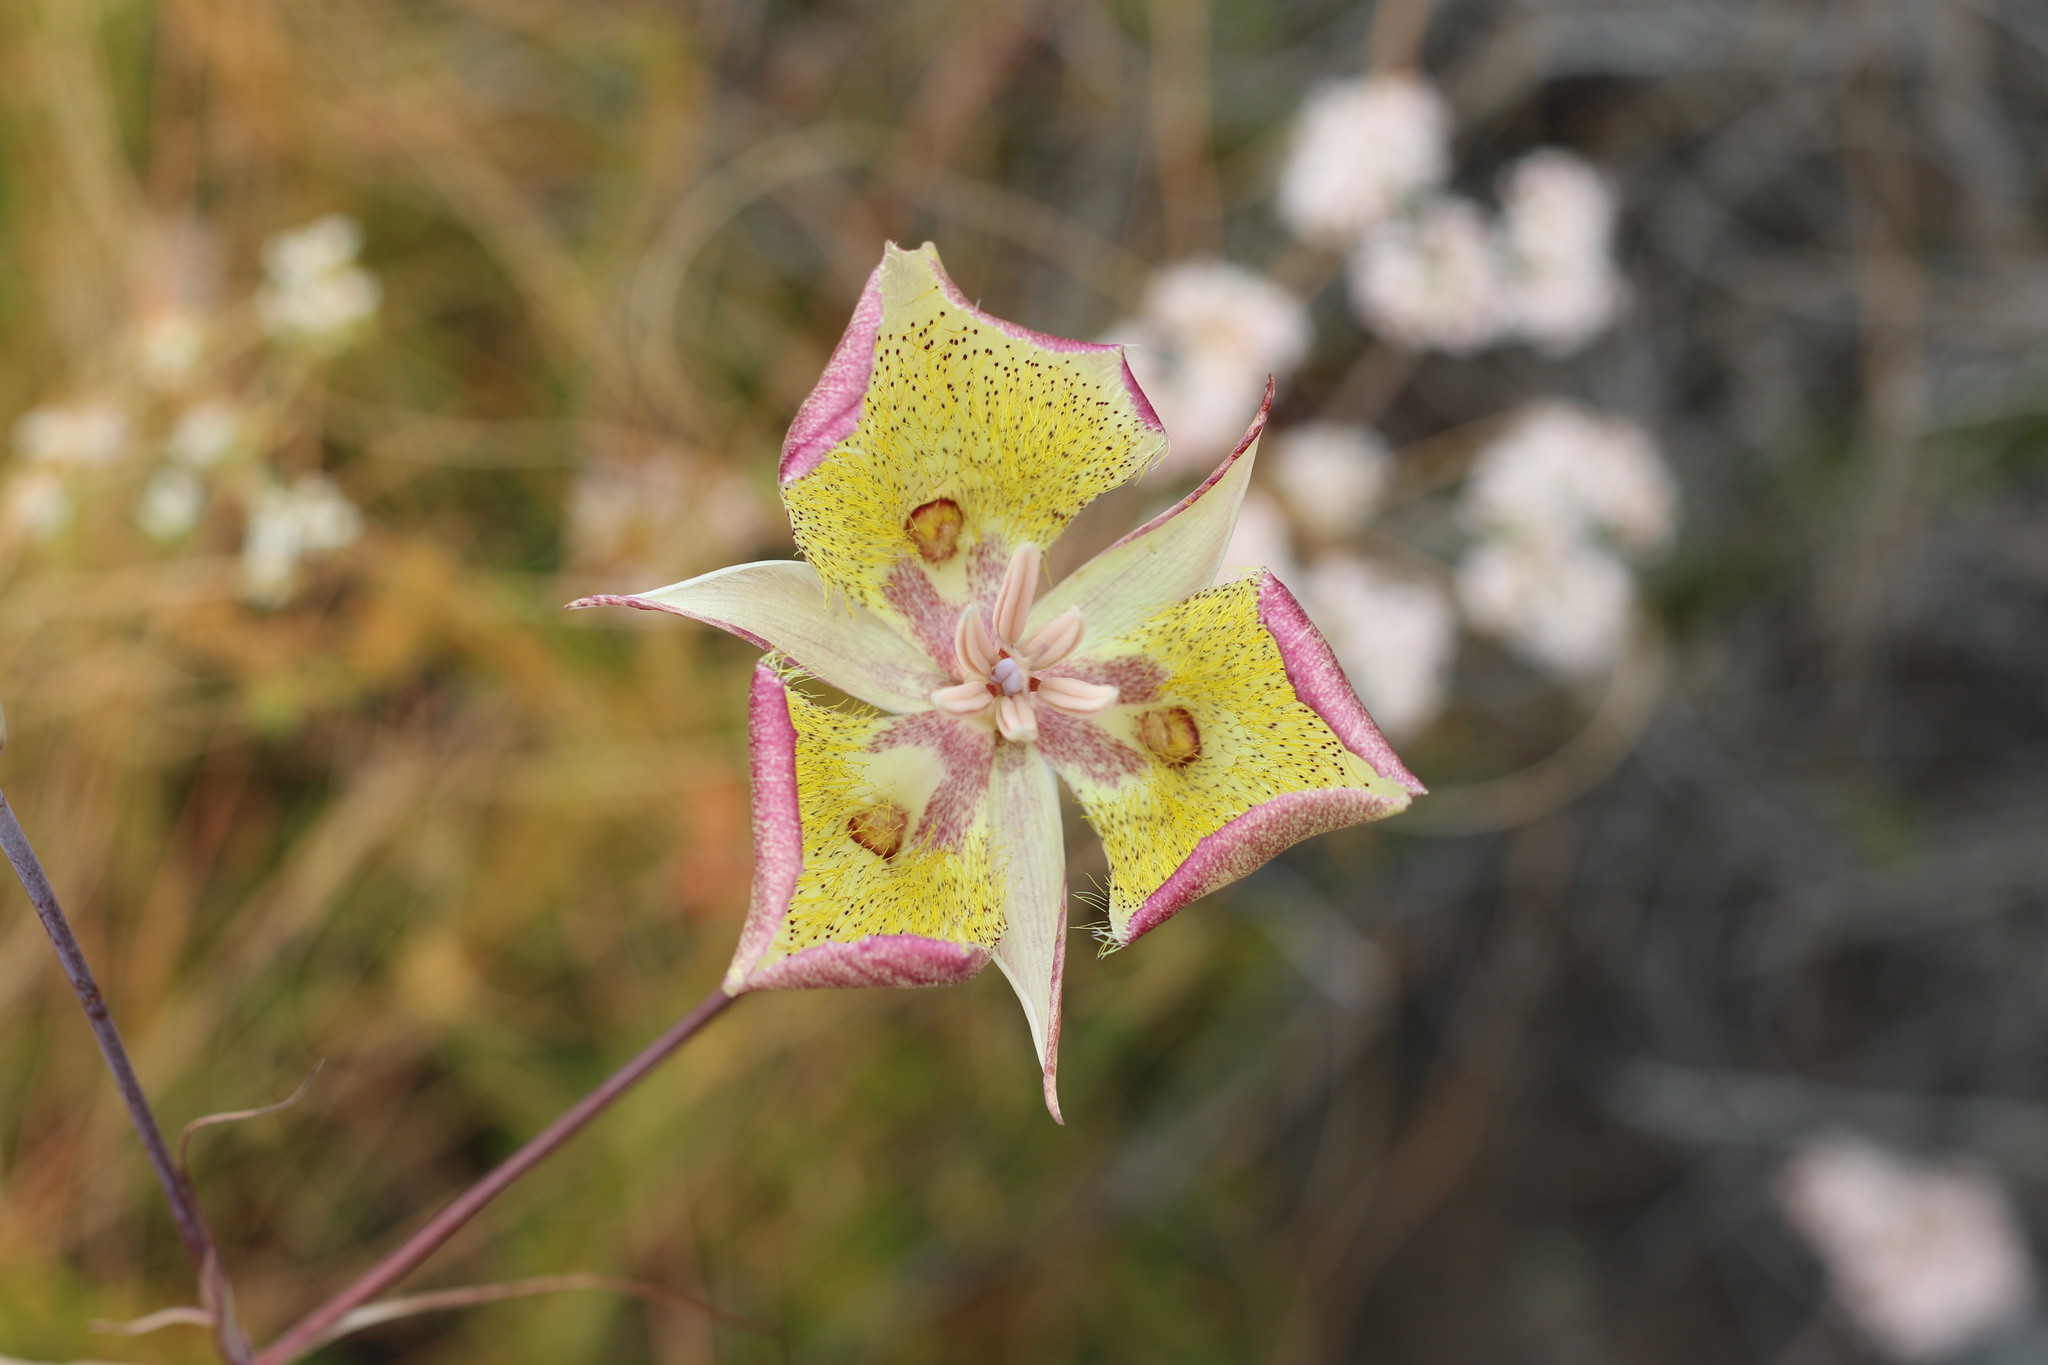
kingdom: Plantae
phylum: Tracheophyta
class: Liliopsida
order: Liliales
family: Liliaceae
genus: Calochortus
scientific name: Calochortus weedii
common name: Weed's mariposa-lily
